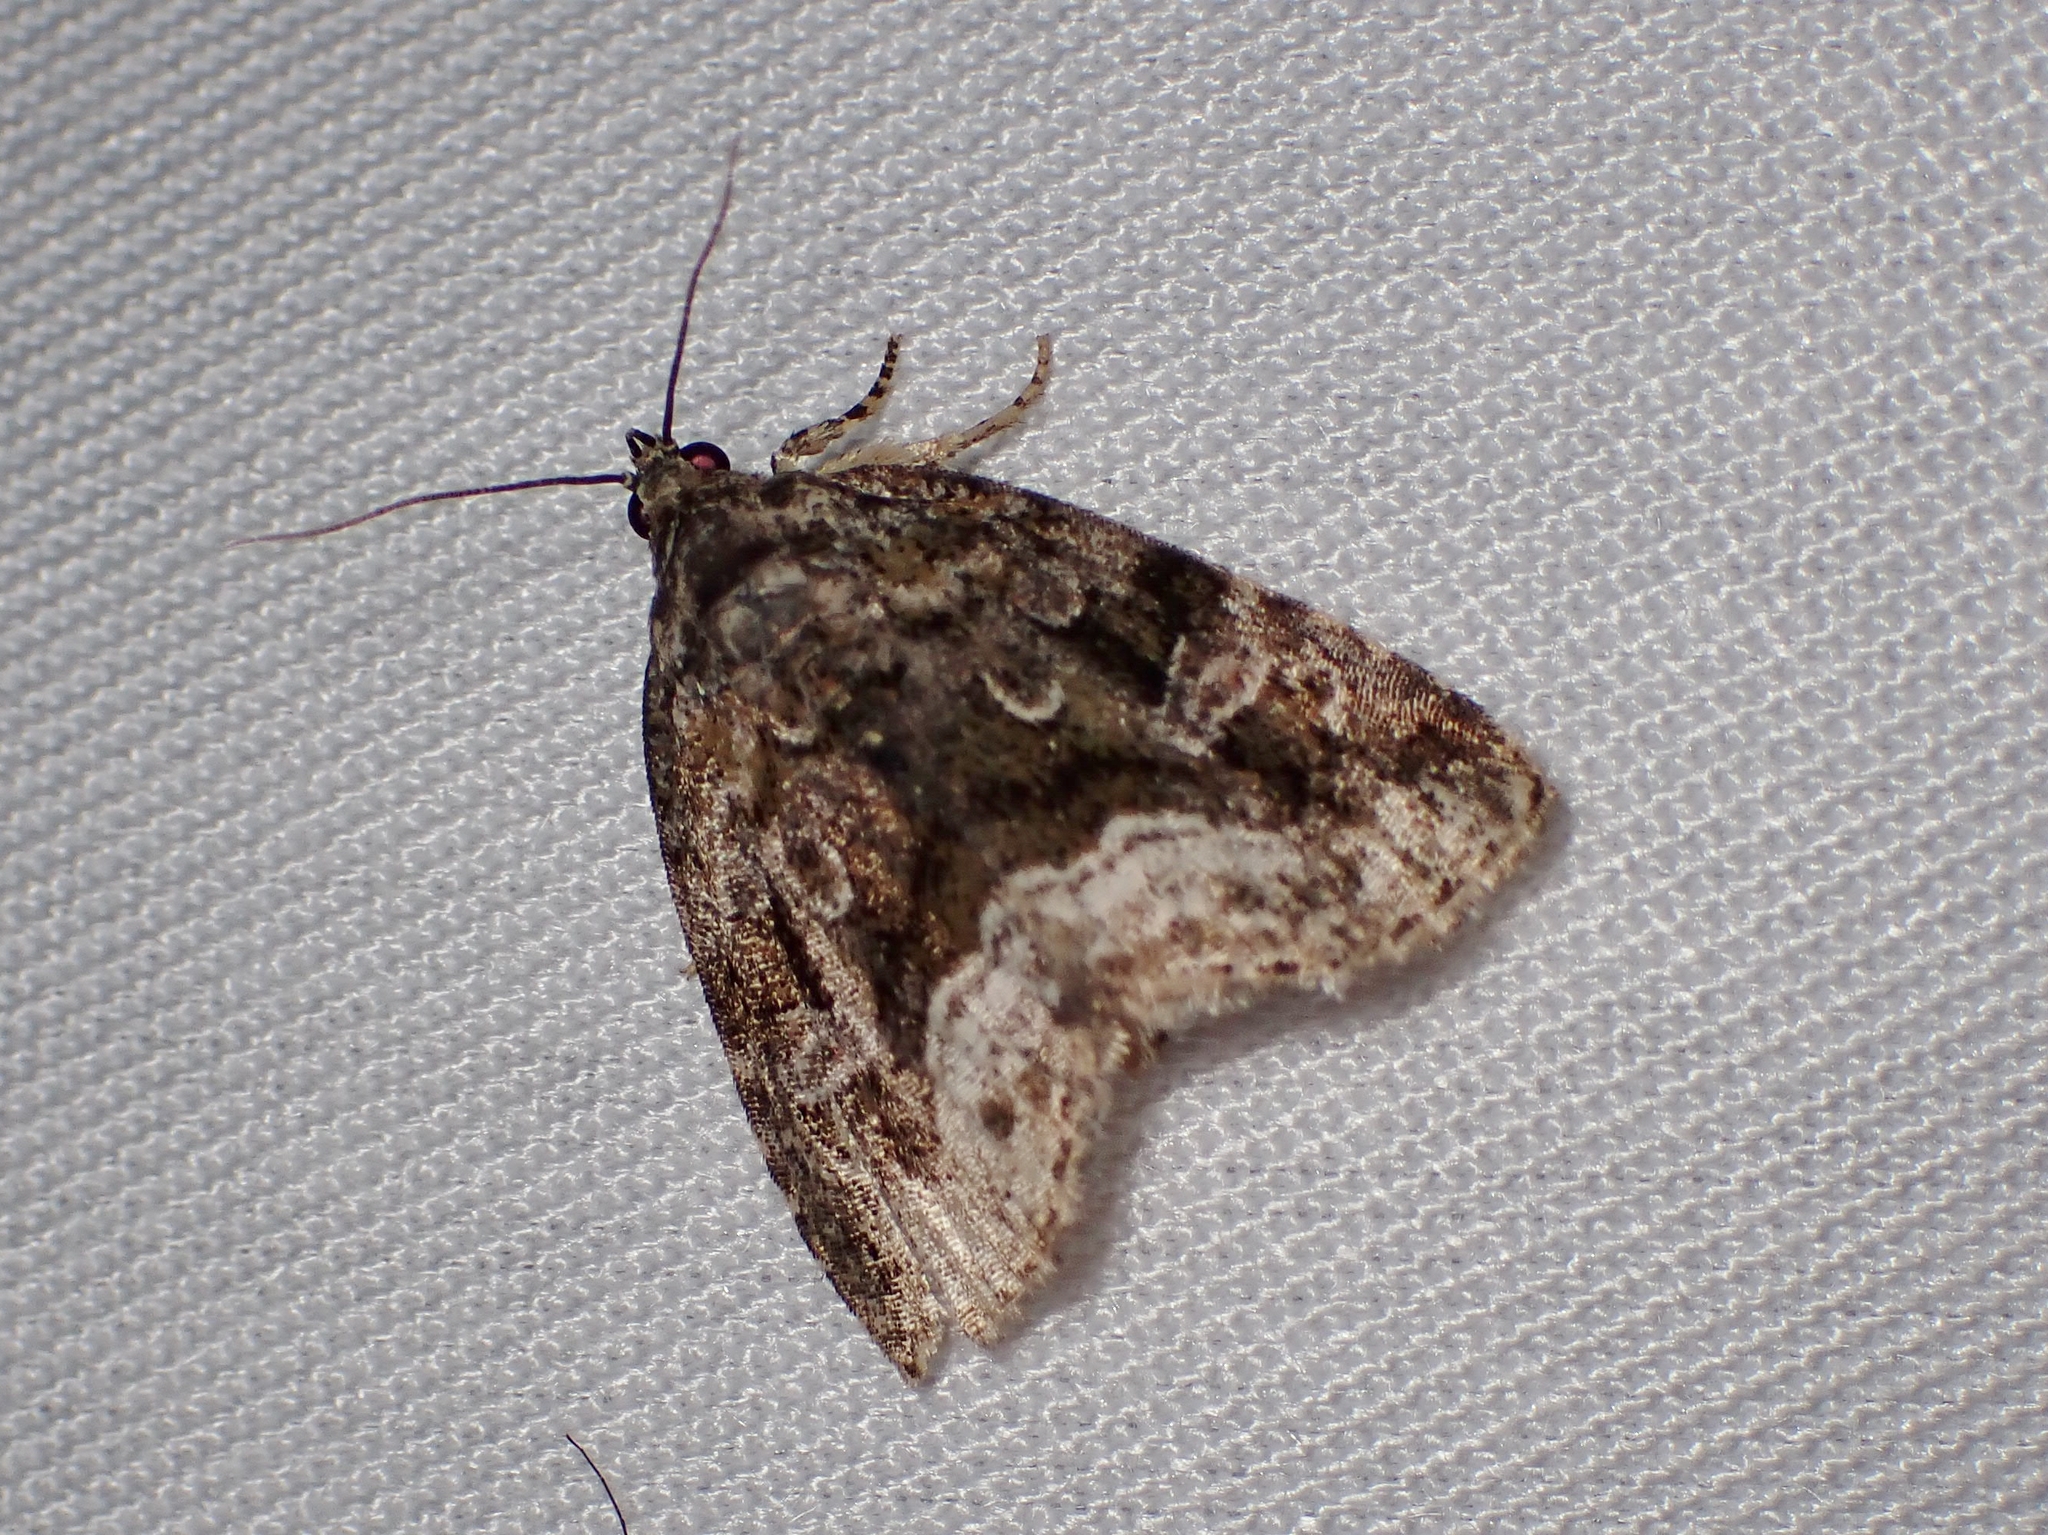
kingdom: Animalia
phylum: Arthropoda
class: Insecta
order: Lepidoptera
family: Noctuidae
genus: Protodeltote
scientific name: Protodeltote muscosula
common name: Large mossy glyph
